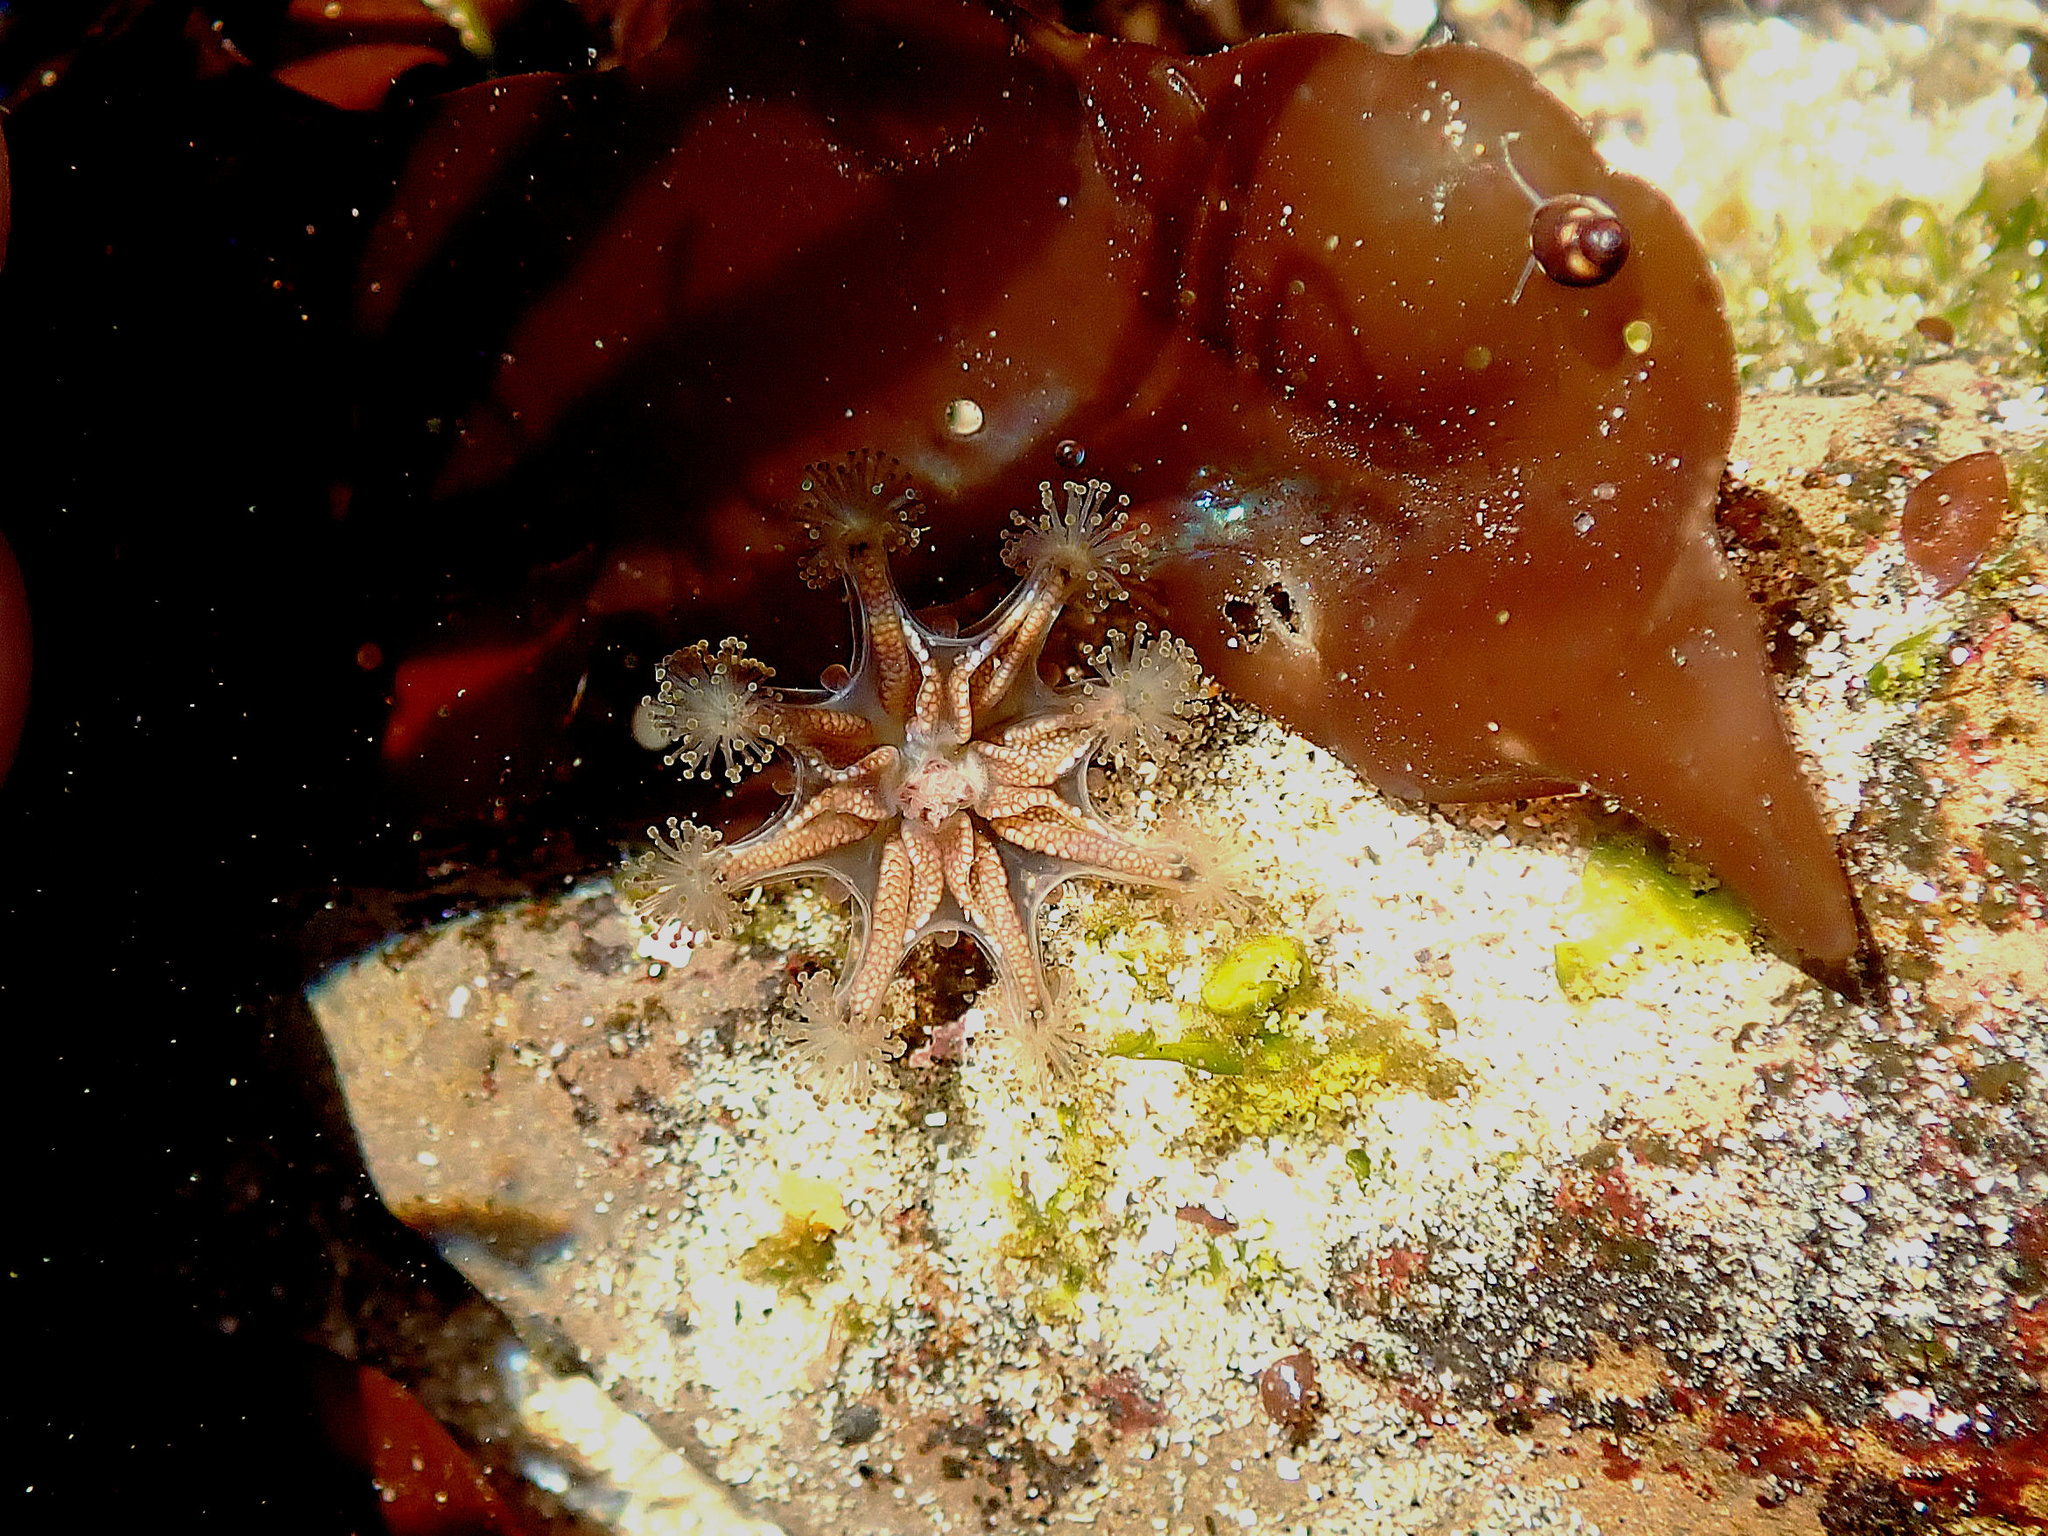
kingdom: Animalia
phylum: Cnidaria
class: Staurozoa
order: Stauromedusae
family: Haliclystidae
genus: Haliclystus
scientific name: Haliclystus sanjuanensis
